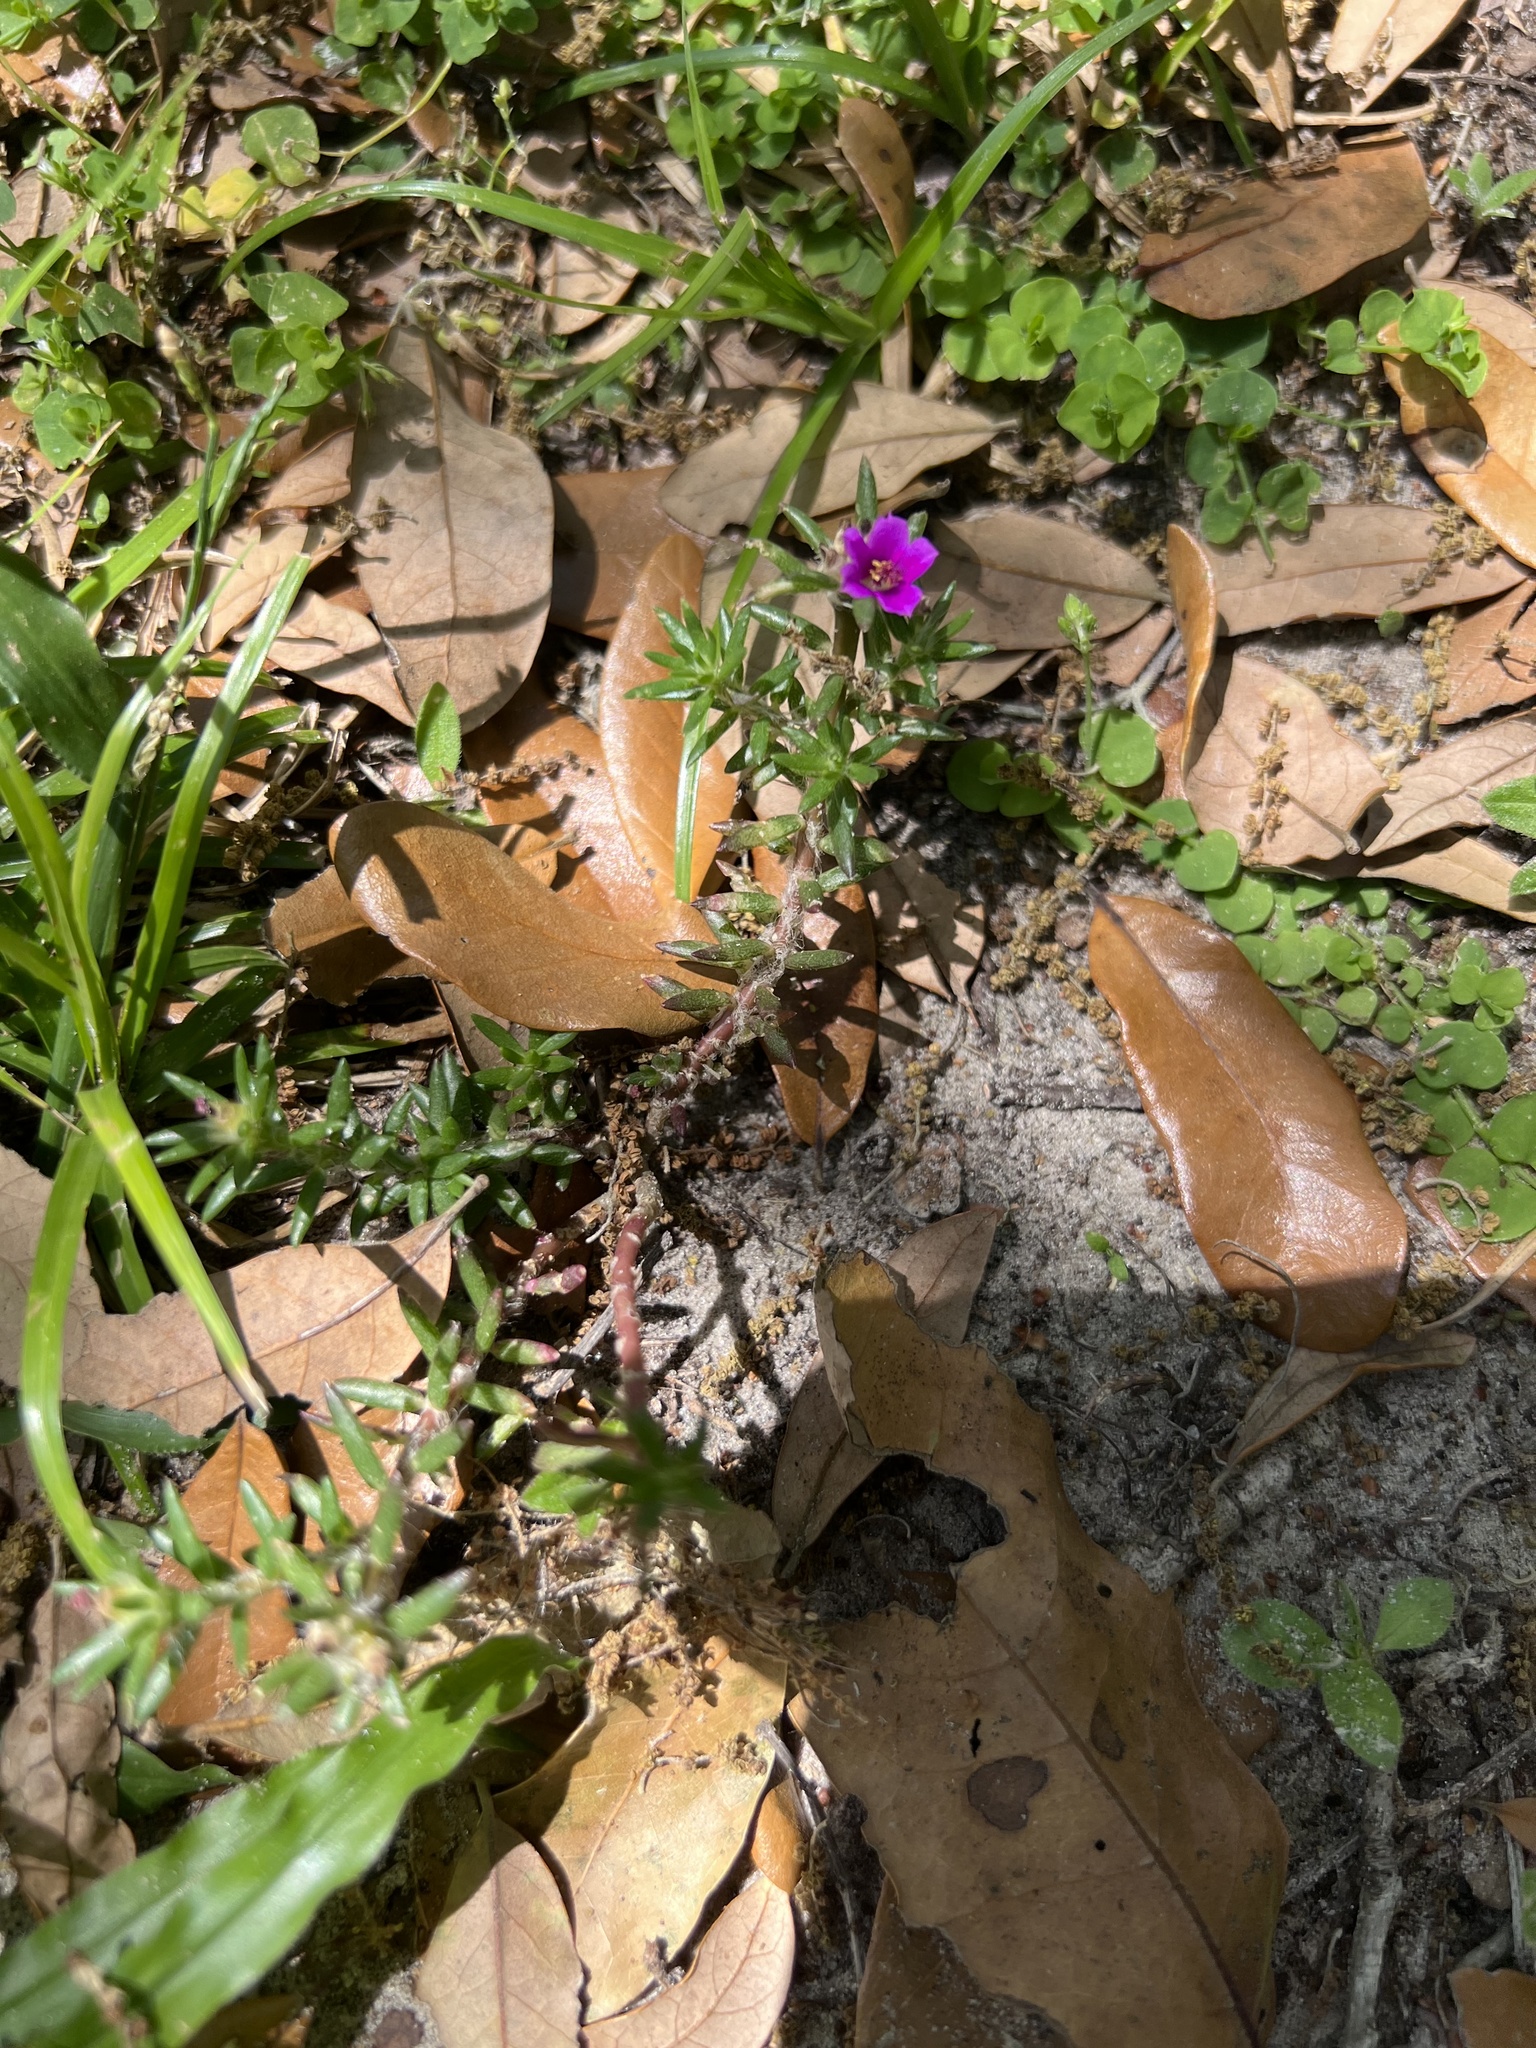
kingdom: Plantae
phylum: Tracheophyta
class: Magnoliopsida
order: Caryophyllales
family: Portulacaceae
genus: Portulaca
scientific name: Portulaca pilosa
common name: Kiss me quick
